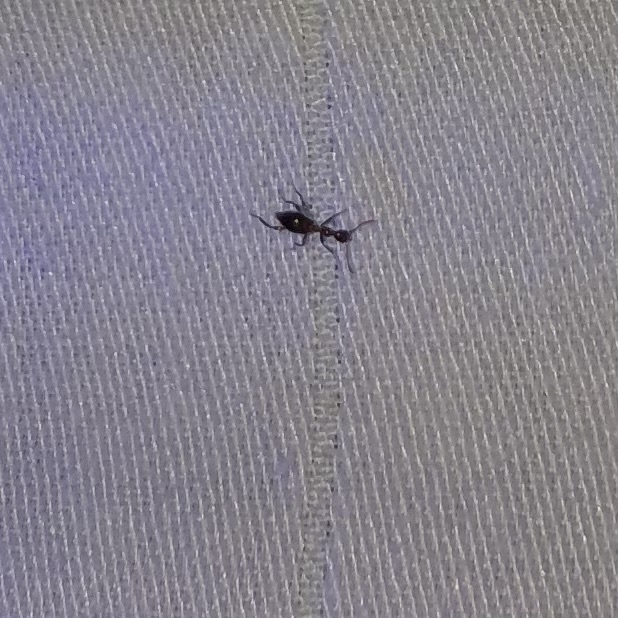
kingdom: Animalia
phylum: Arthropoda
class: Insecta
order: Coleoptera
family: Anthicidae
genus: Acanthinus
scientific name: Acanthinus
